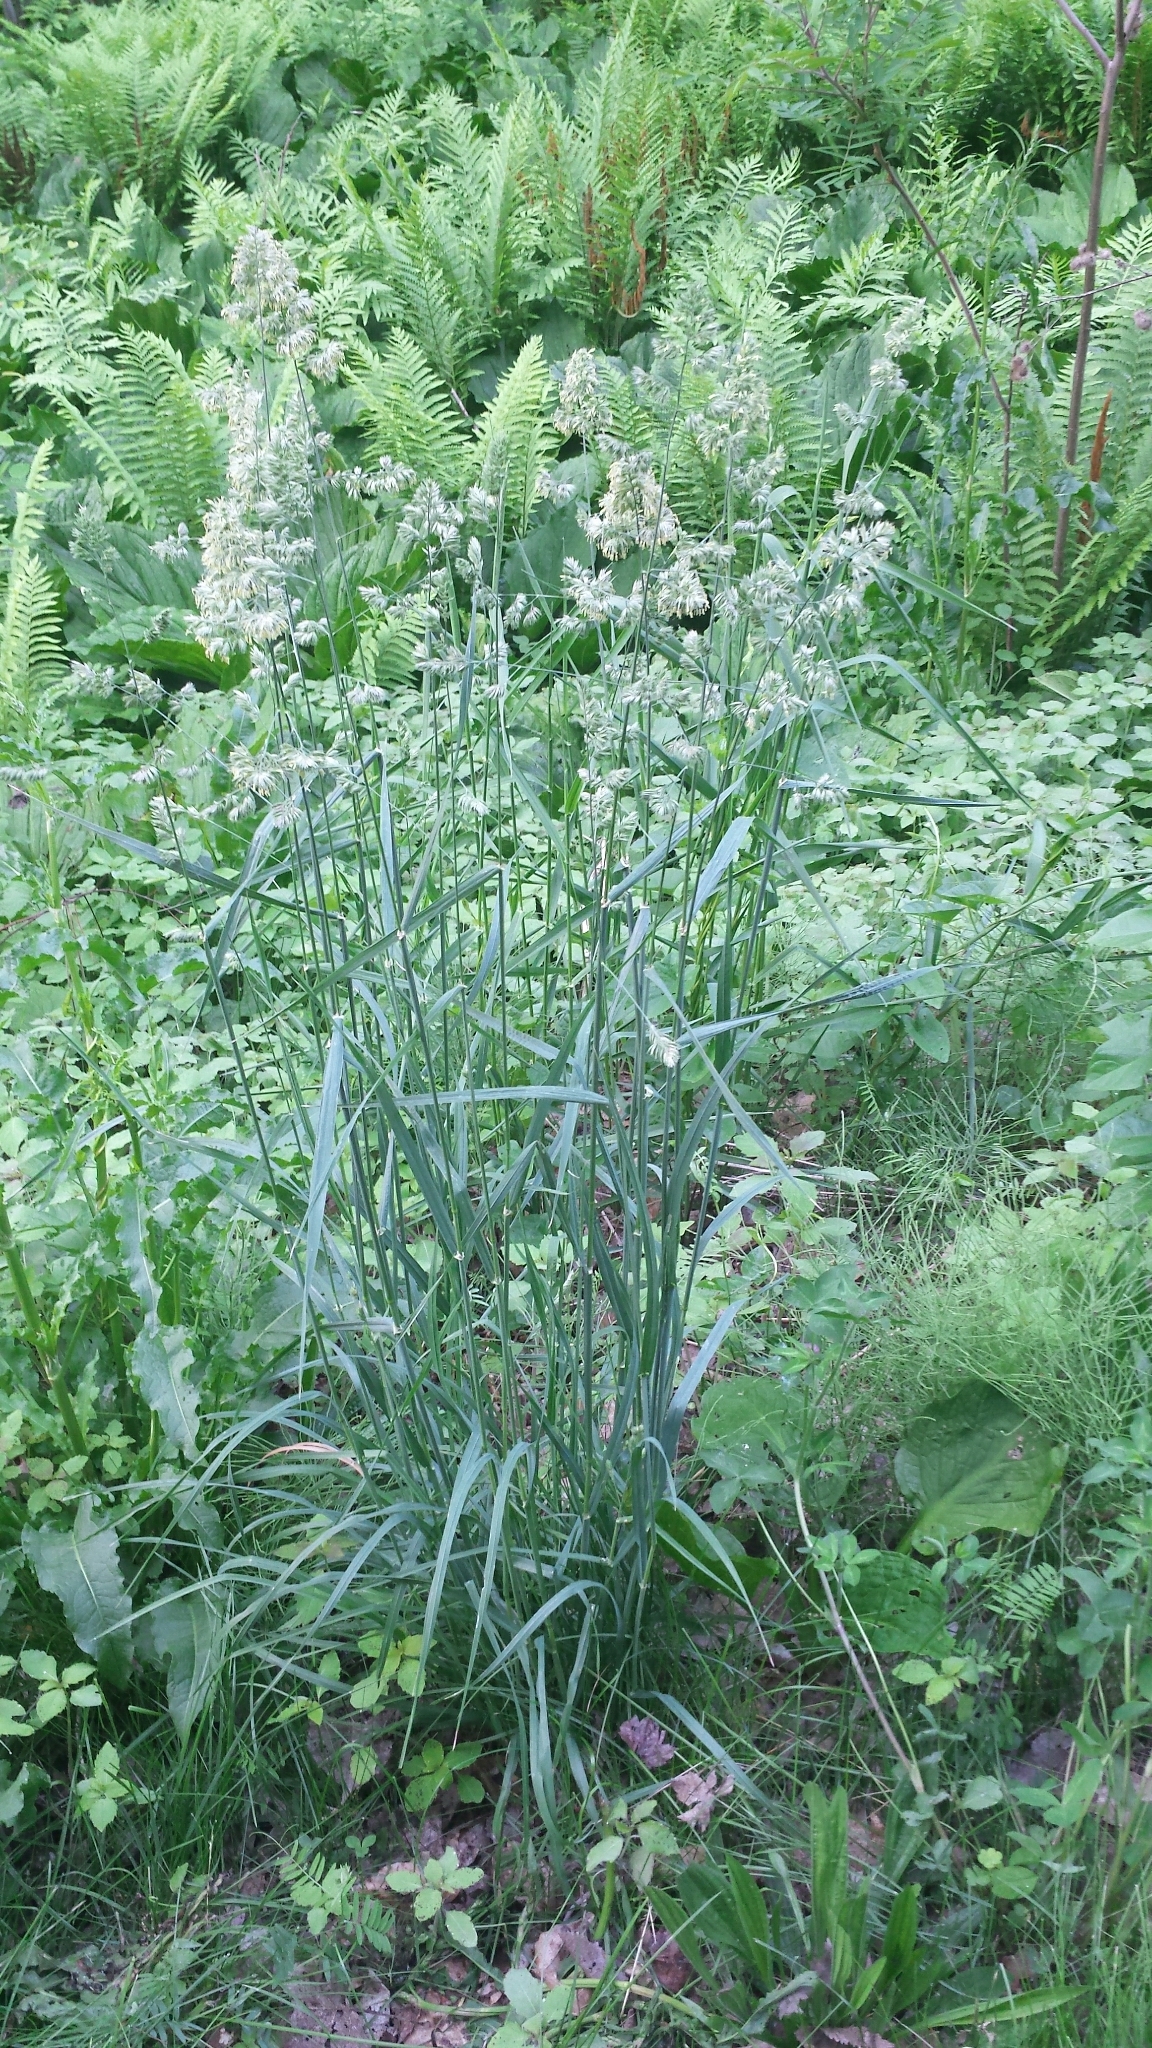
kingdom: Plantae
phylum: Tracheophyta
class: Liliopsida
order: Poales
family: Poaceae
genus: Dactylis
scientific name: Dactylis glomerata
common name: Orchardgrass
